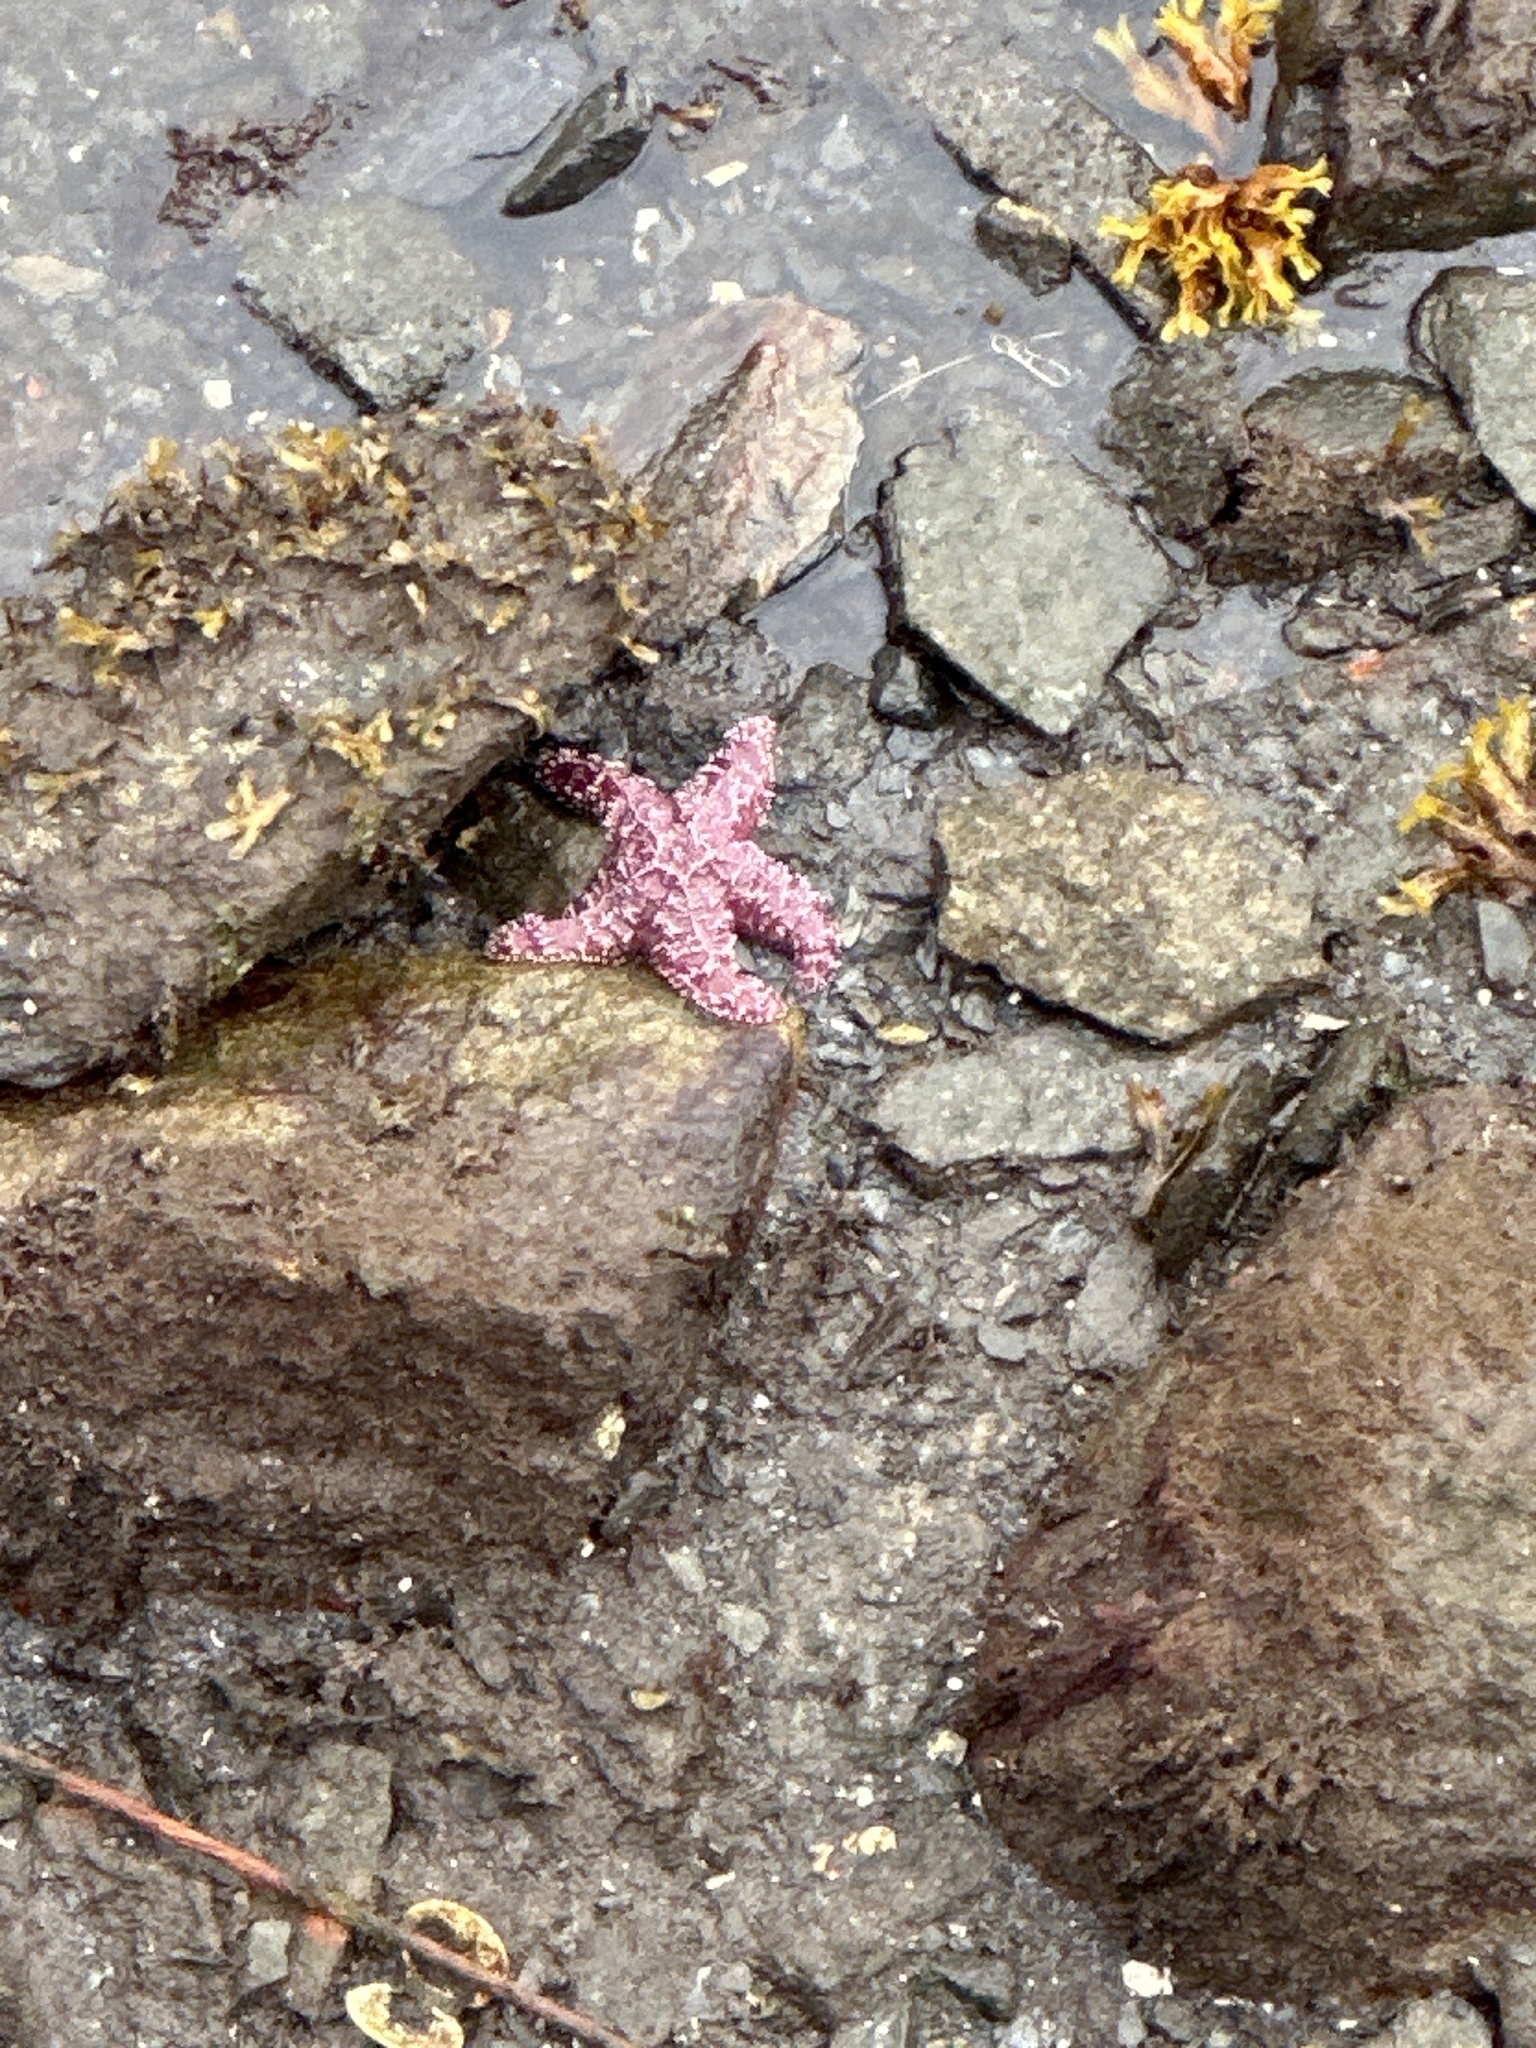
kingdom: Animalia
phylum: Echinodermata
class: Asteroidea
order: Forcipulatida
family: Asteriidae
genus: Pisaster
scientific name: Pisaster ochraceus
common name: Ochre stars
